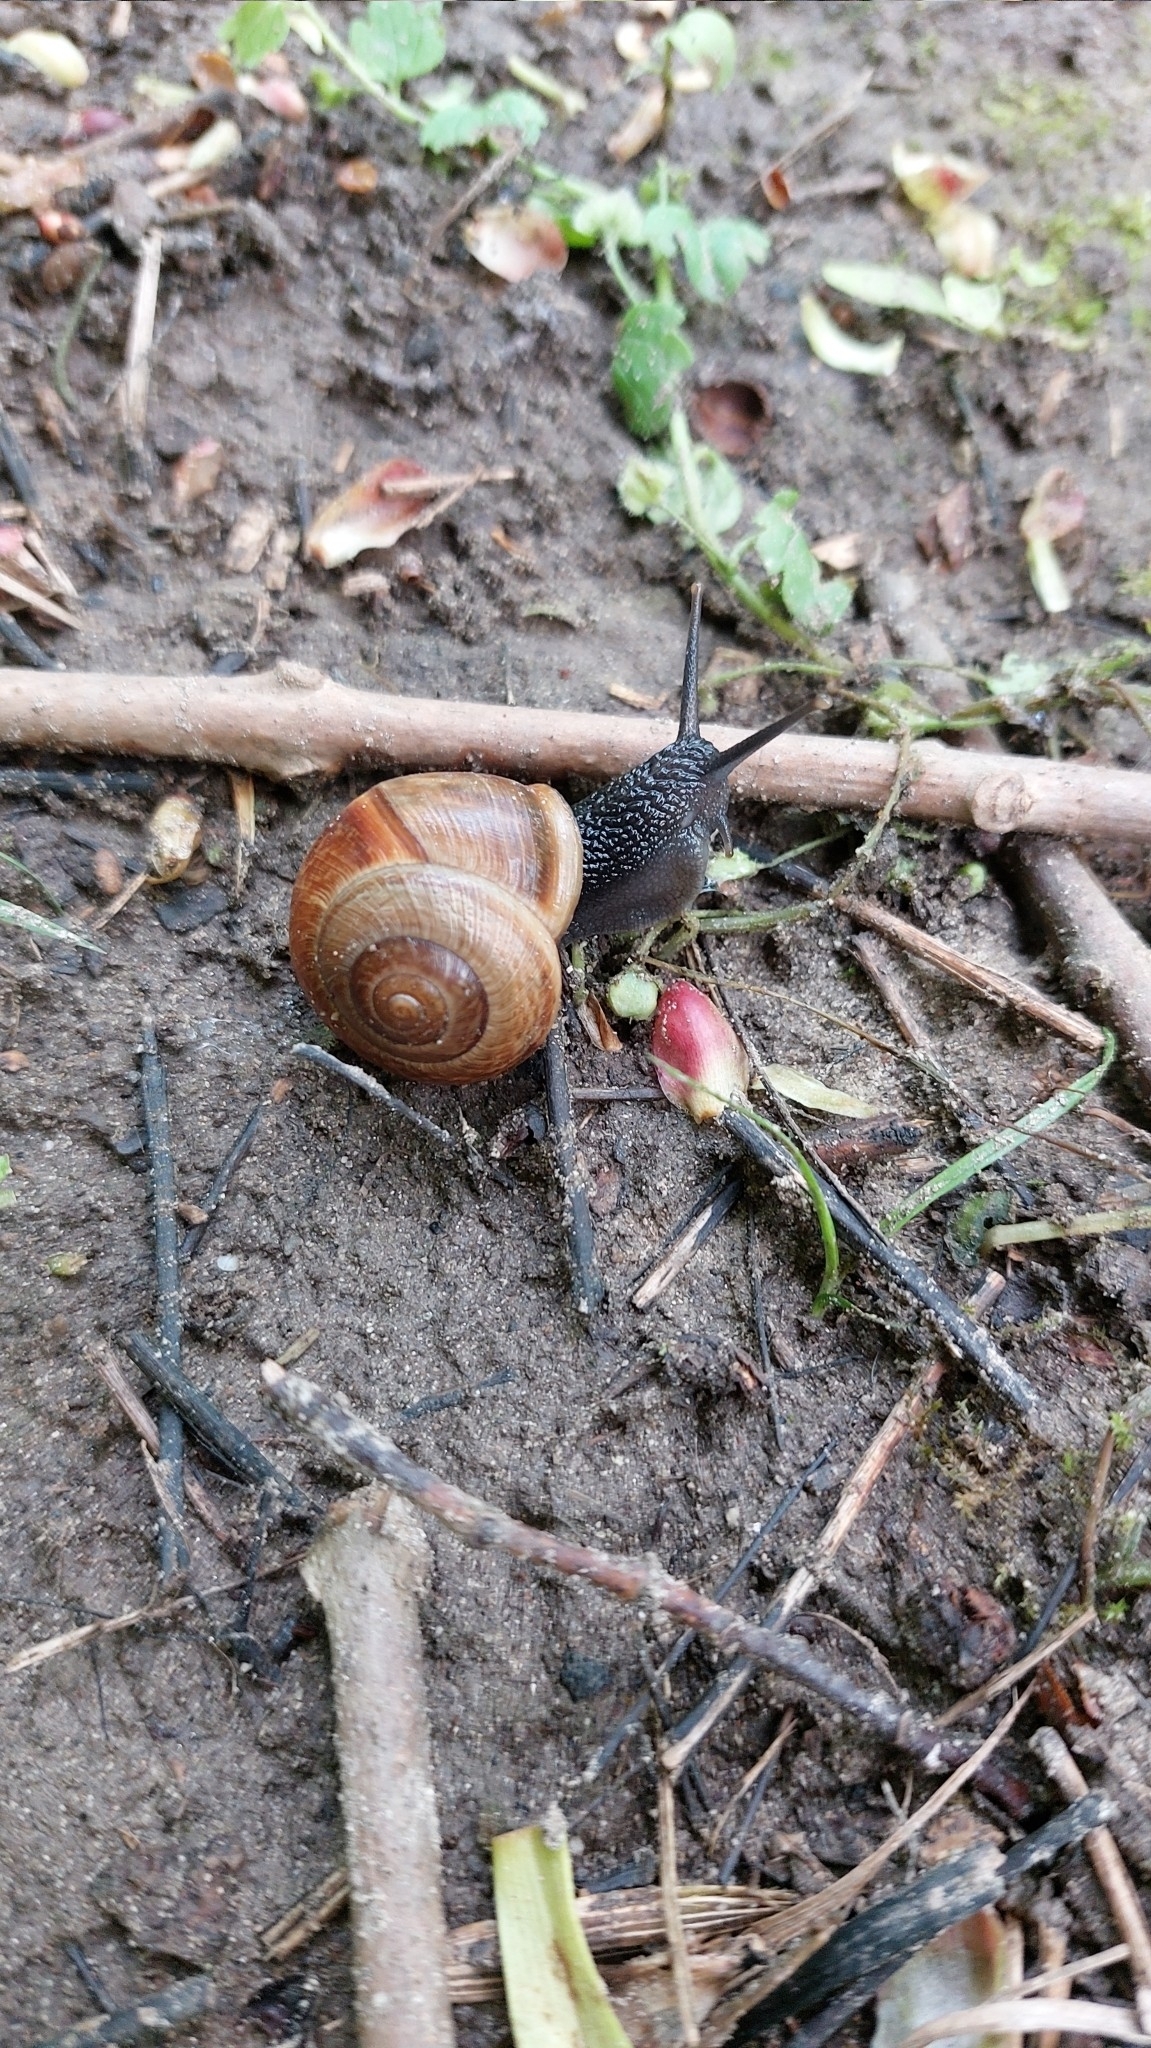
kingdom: Animalia
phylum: Mollusca
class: Gastropoda
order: Stylommatophora
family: Helicidae
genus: Arianta
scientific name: Arianta arbustorum
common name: Copse snail
